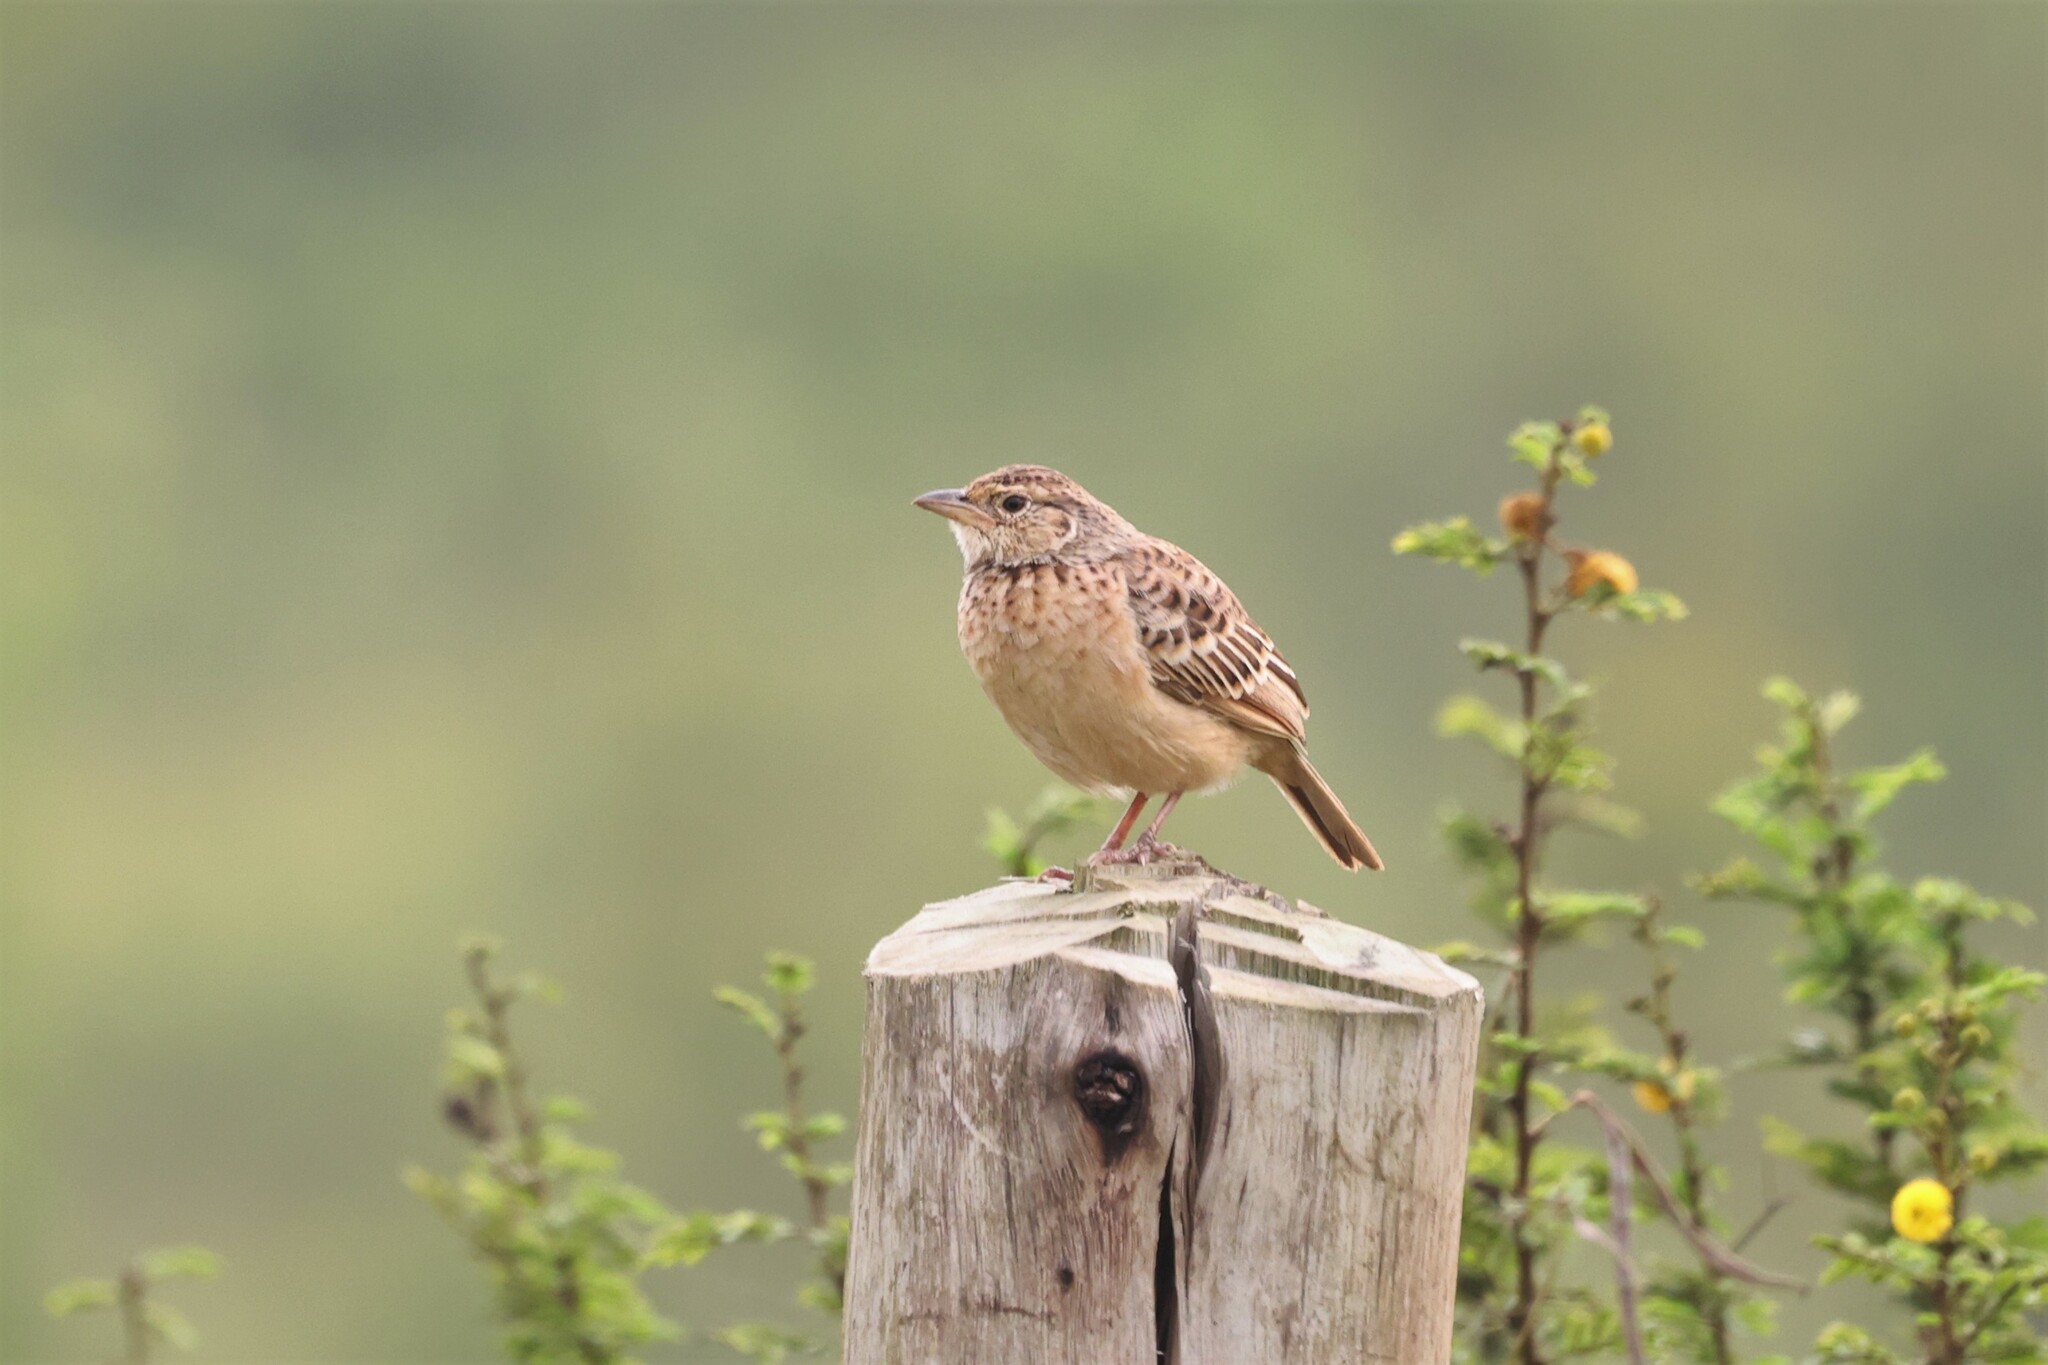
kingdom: Animalia
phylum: Chordata
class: Aves
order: Passeriformes
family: Alaudidae
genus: Mirafra
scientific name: Mirafra rufocinnamomea
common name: Flappet lark
